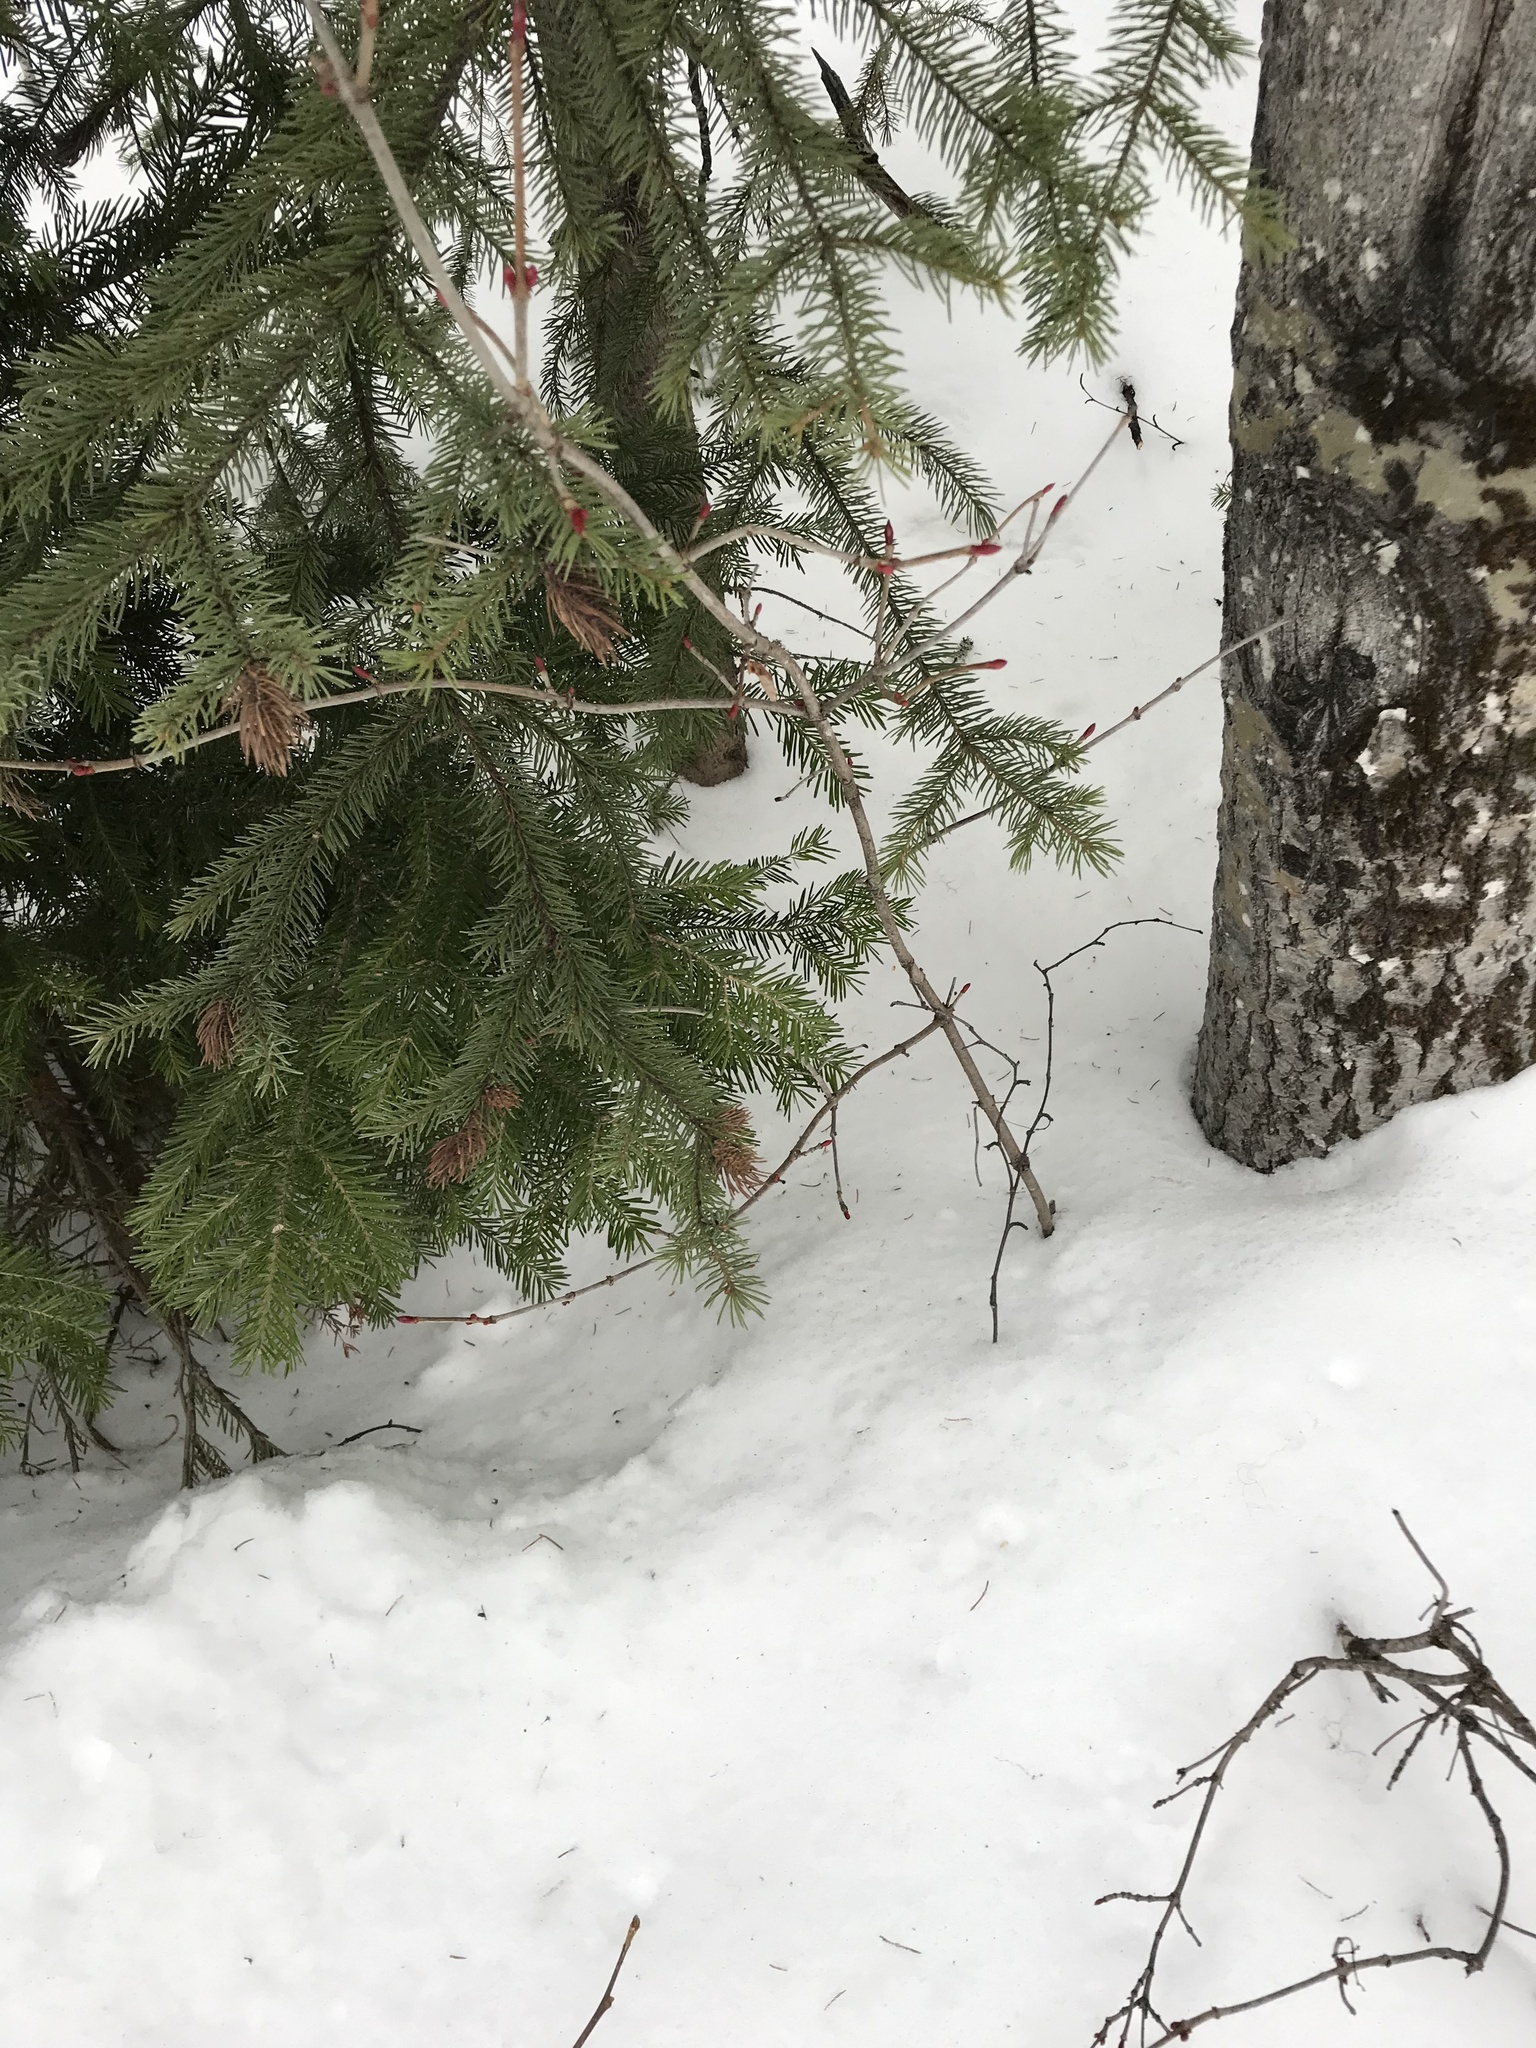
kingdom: Plantae
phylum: Tracheophyta
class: Magnoliopsida
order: Dipsacales
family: Viburnaceae
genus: Viburnum
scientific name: Viburnum edule
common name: Mooseberry
